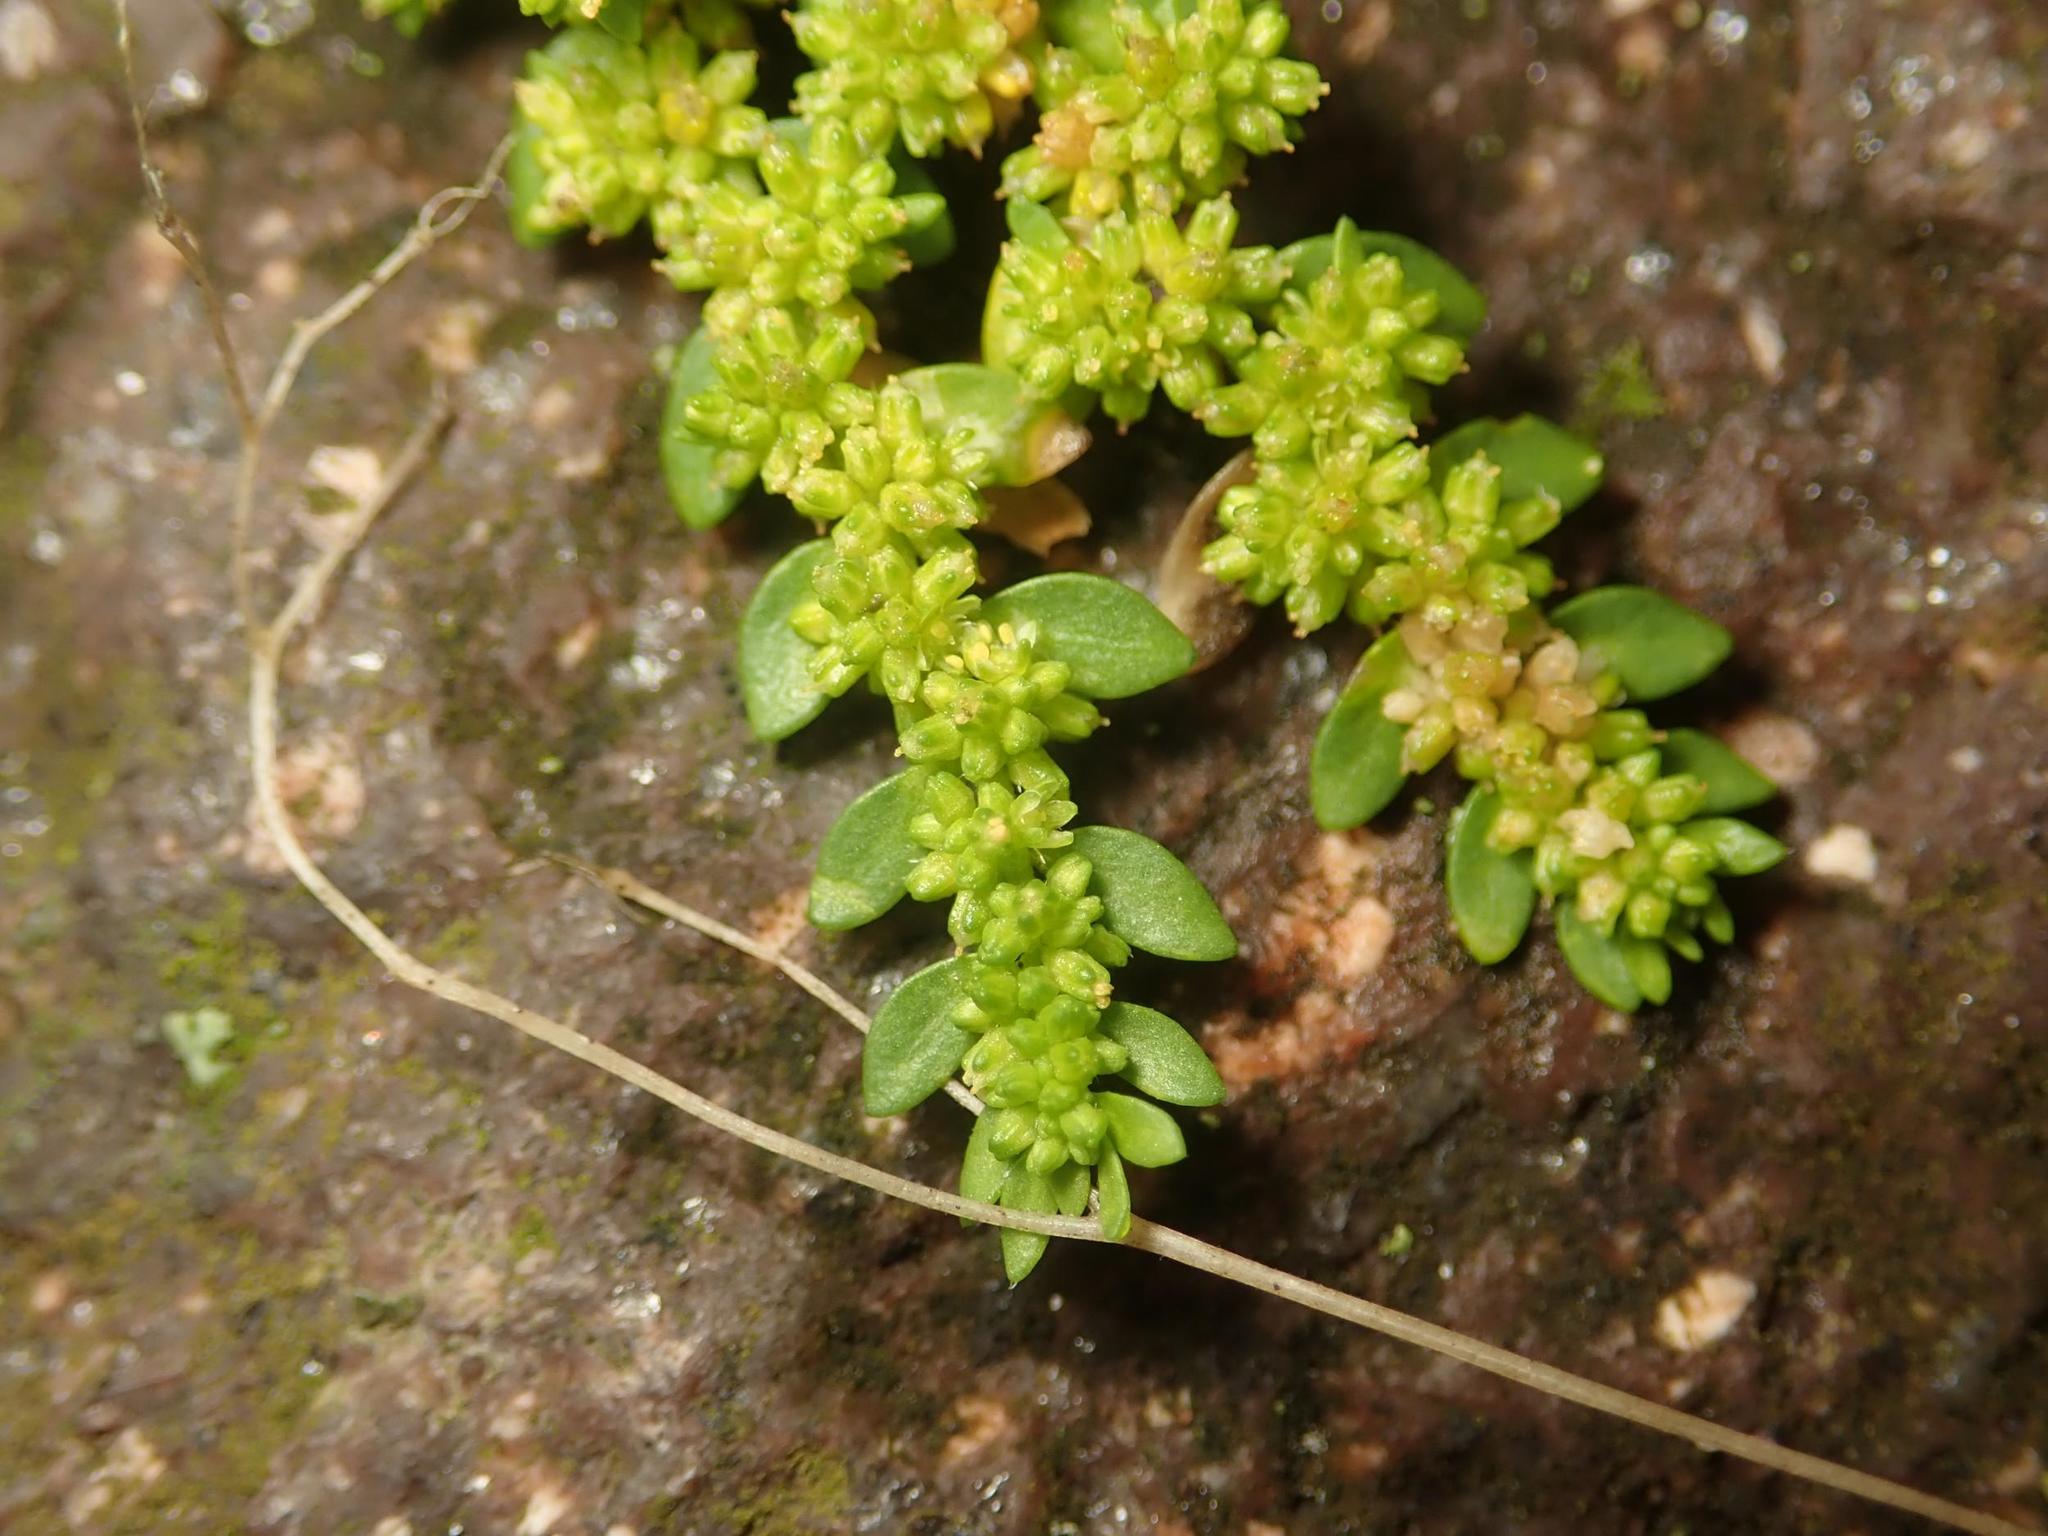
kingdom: Plantae
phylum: Tracheophyta
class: Magnoliopsida
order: Caryophyllales
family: Caryophyllaceae
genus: Herniaria
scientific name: Herniaria glabra
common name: Smooth rupturewort
